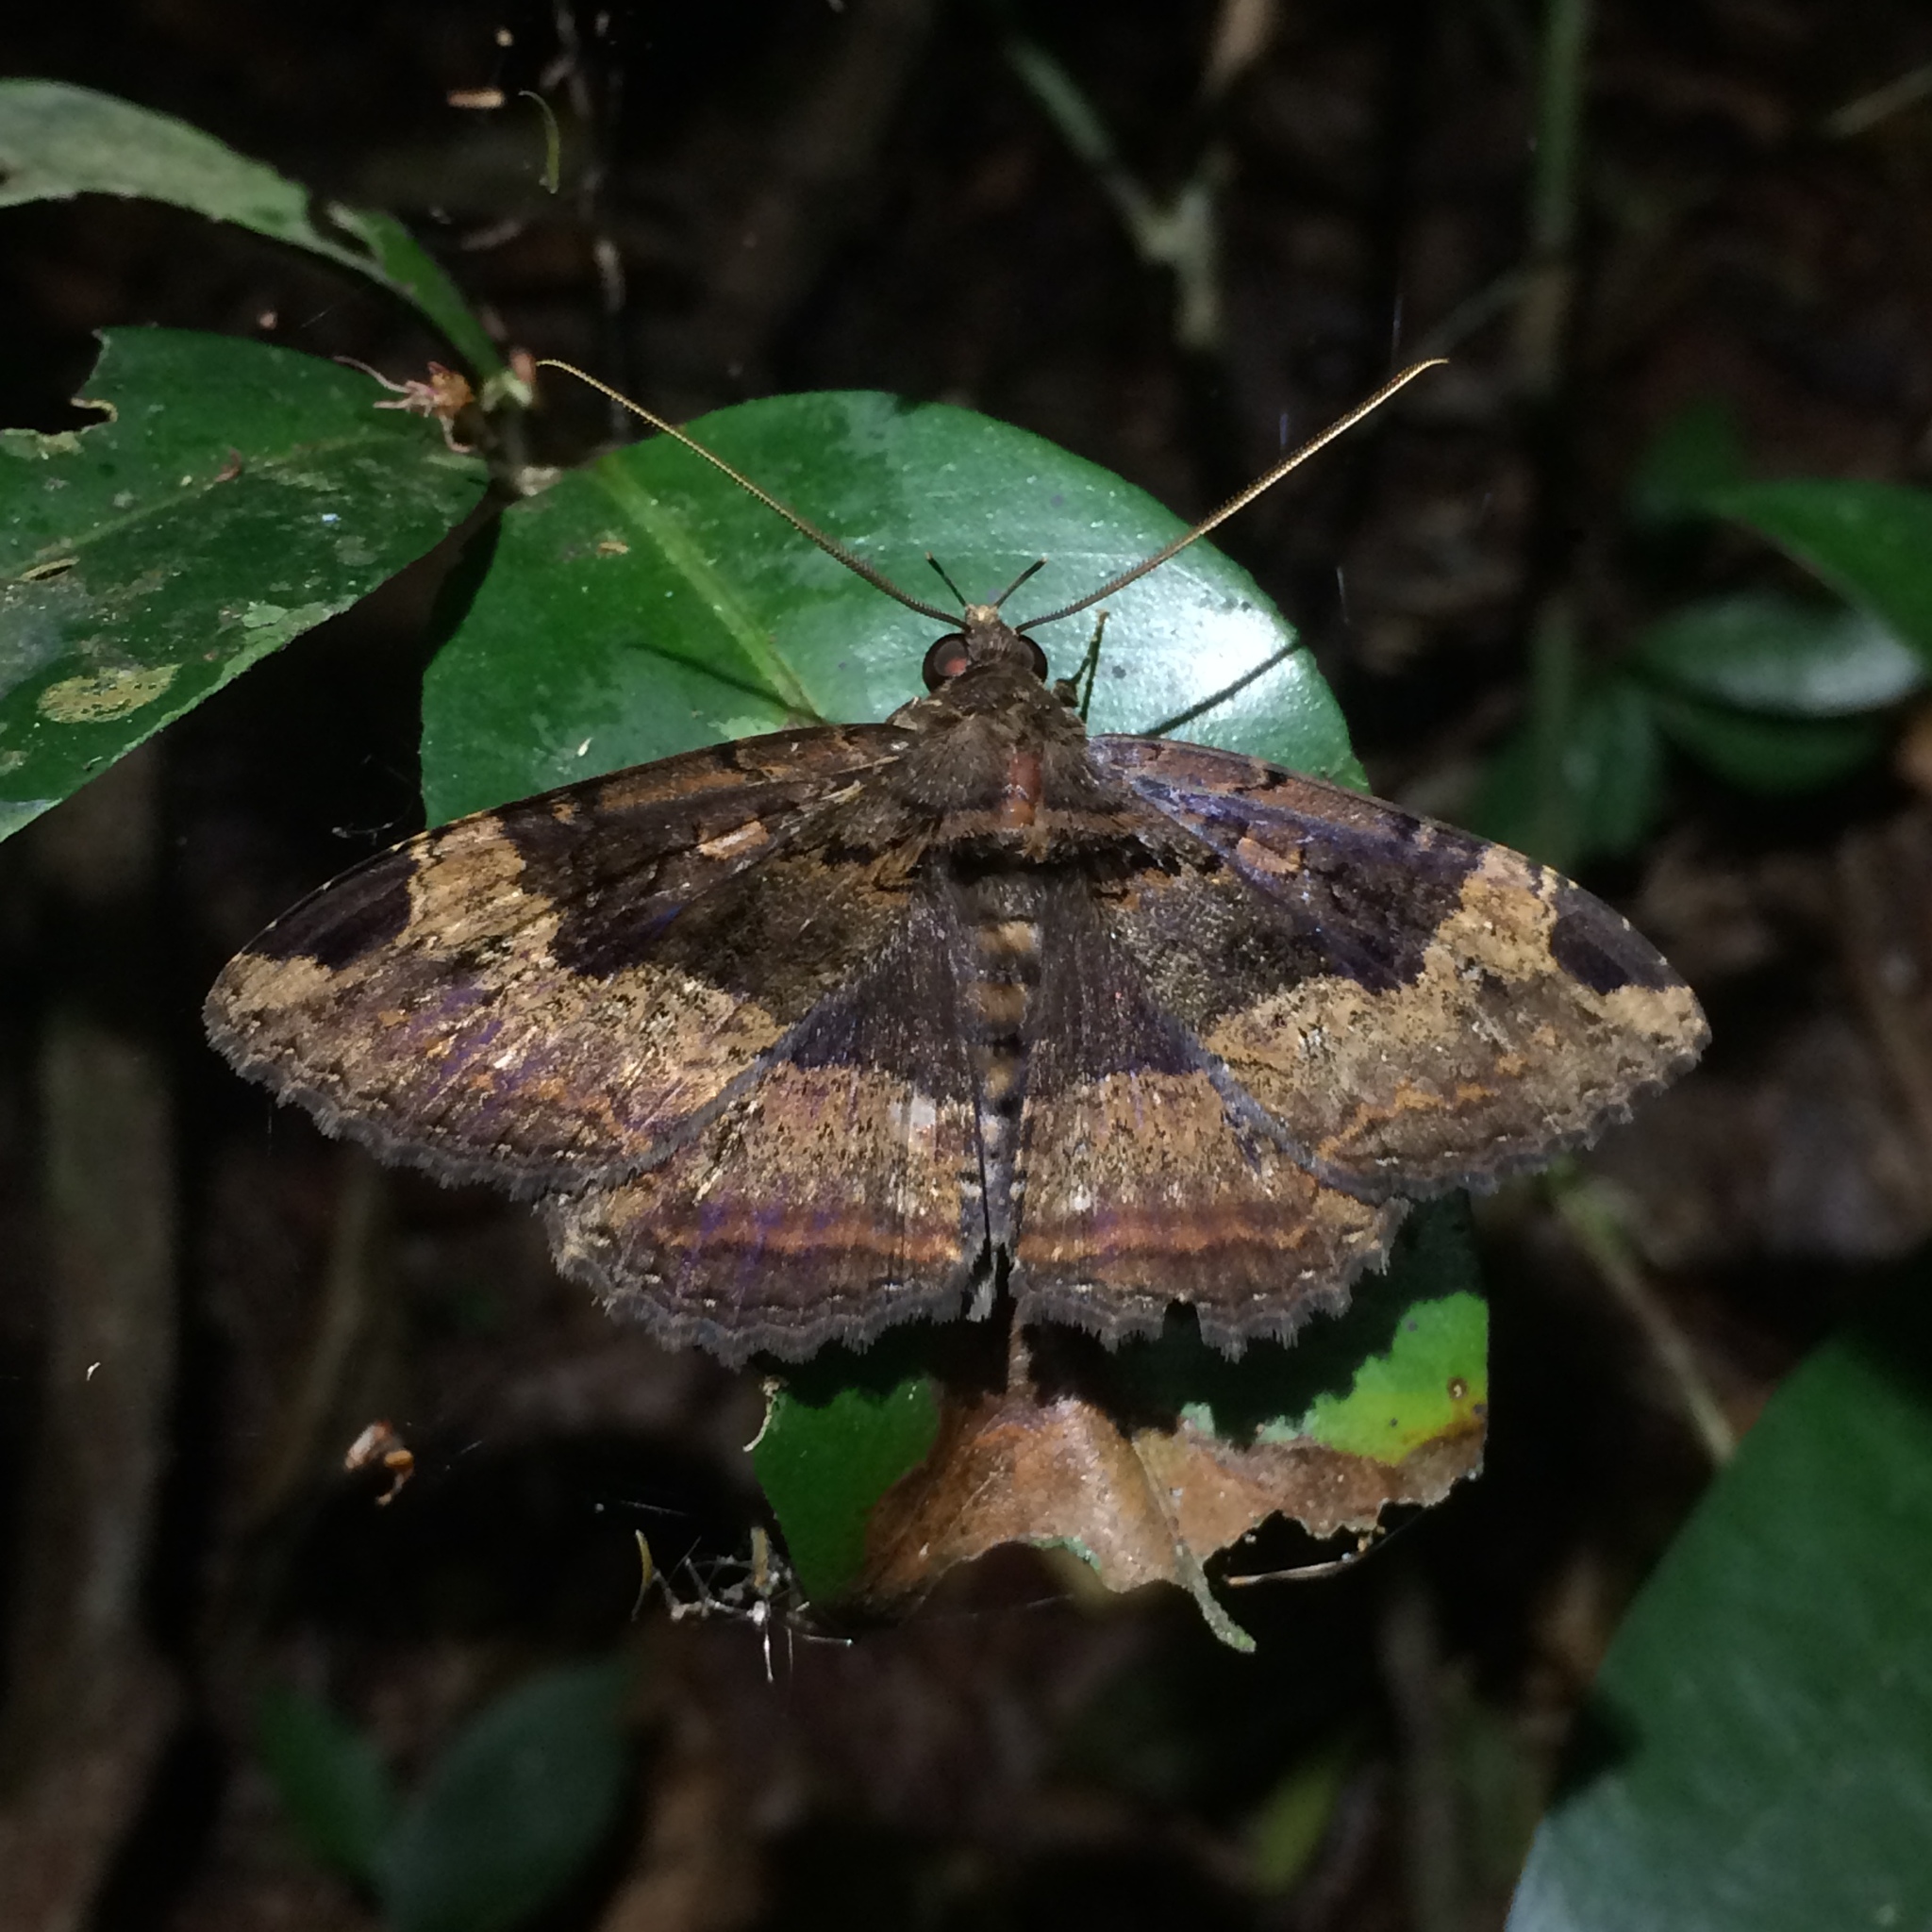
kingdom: Animalia
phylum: Arthropoda
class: Insecta
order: Lepidoptera
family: Erebidae
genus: Ramphia
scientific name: Ramphia albizona
